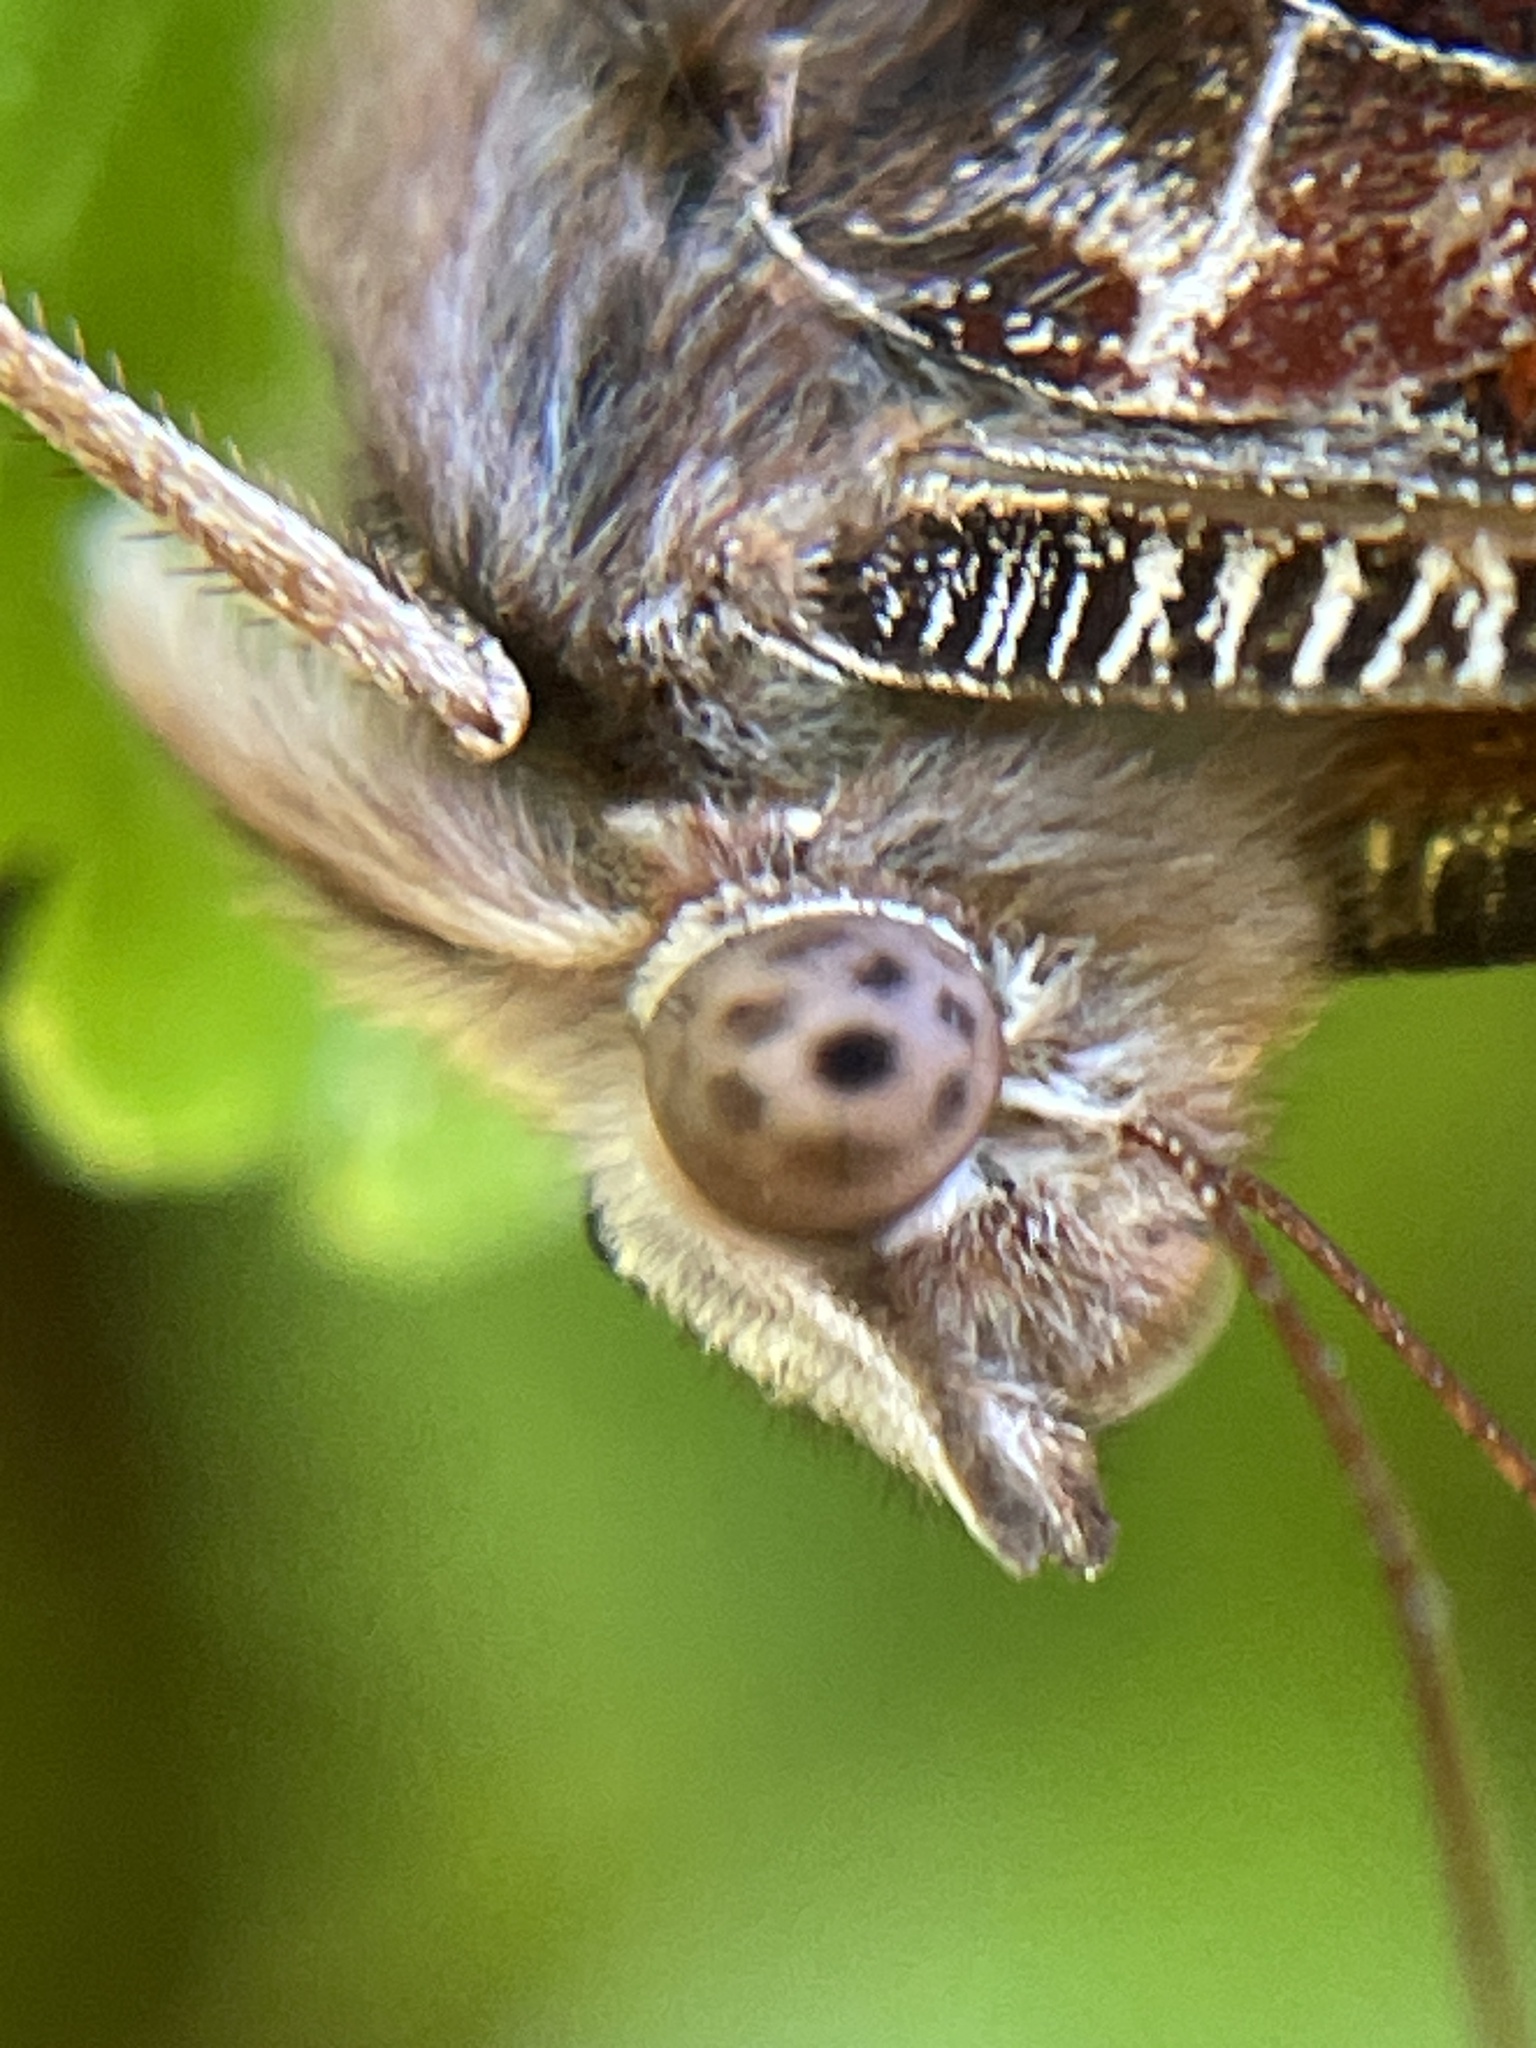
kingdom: Animalia
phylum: Arthropoda
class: Insecta
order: Lepidoptera
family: Nymphalidae
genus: Vanessa
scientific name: Vanessa itea
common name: Yellow admiral
